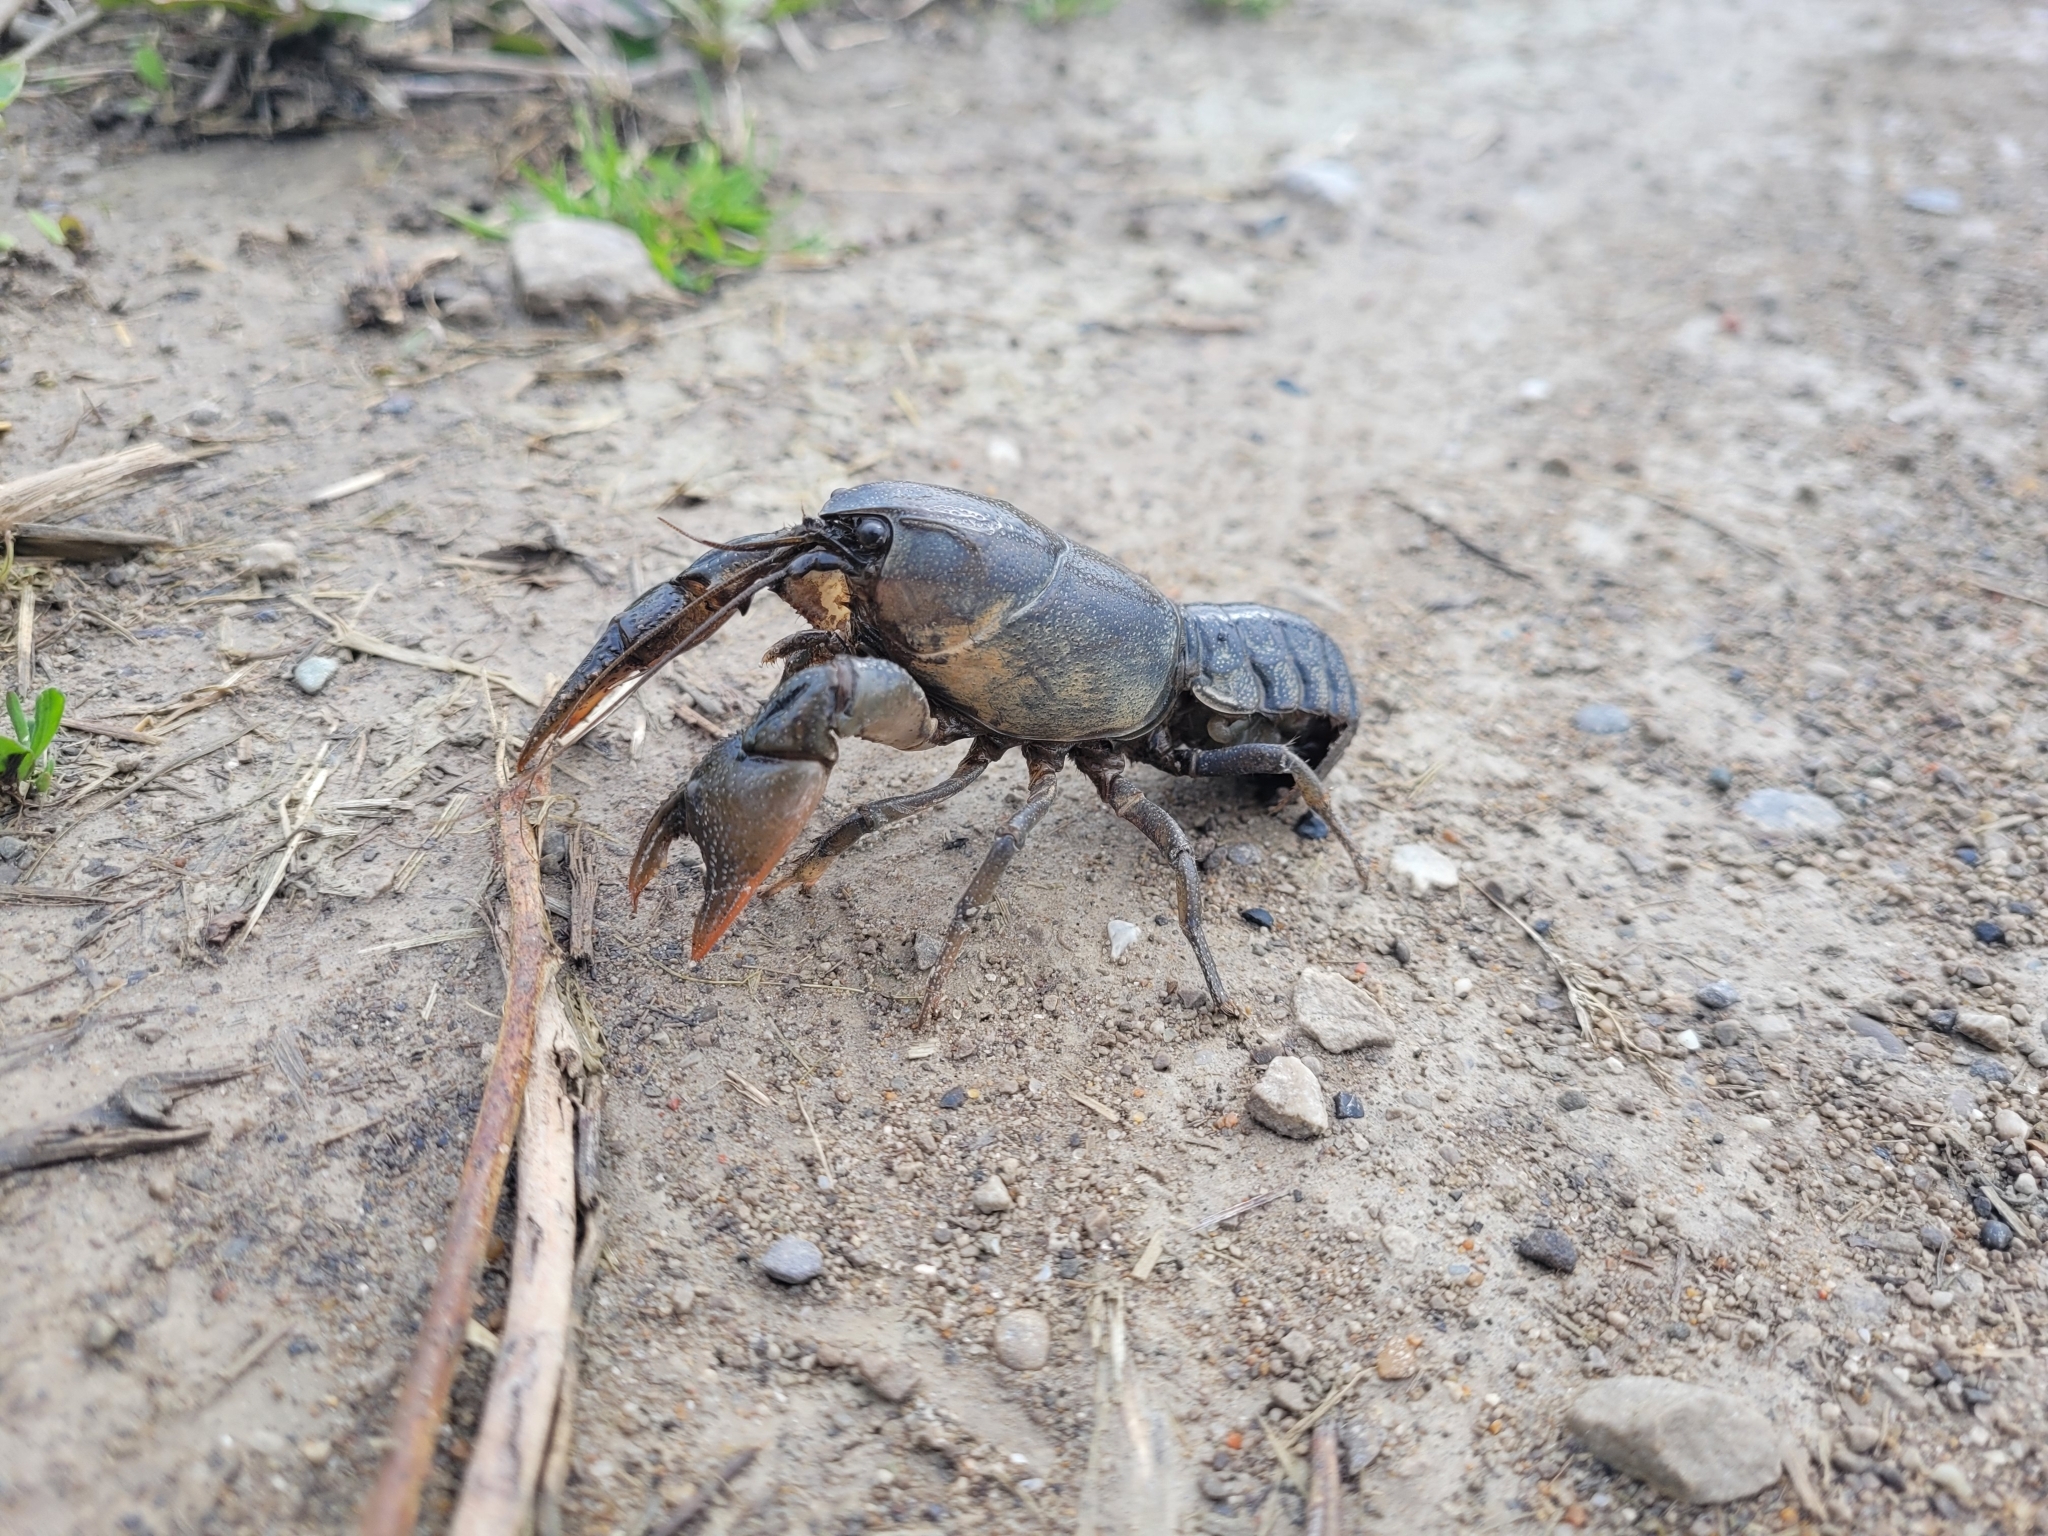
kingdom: Animalia
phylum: Arthropoda
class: Malacostraca
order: Decapoda
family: Cambaridae
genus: Creaserinus
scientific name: Creaserinus fodiens
